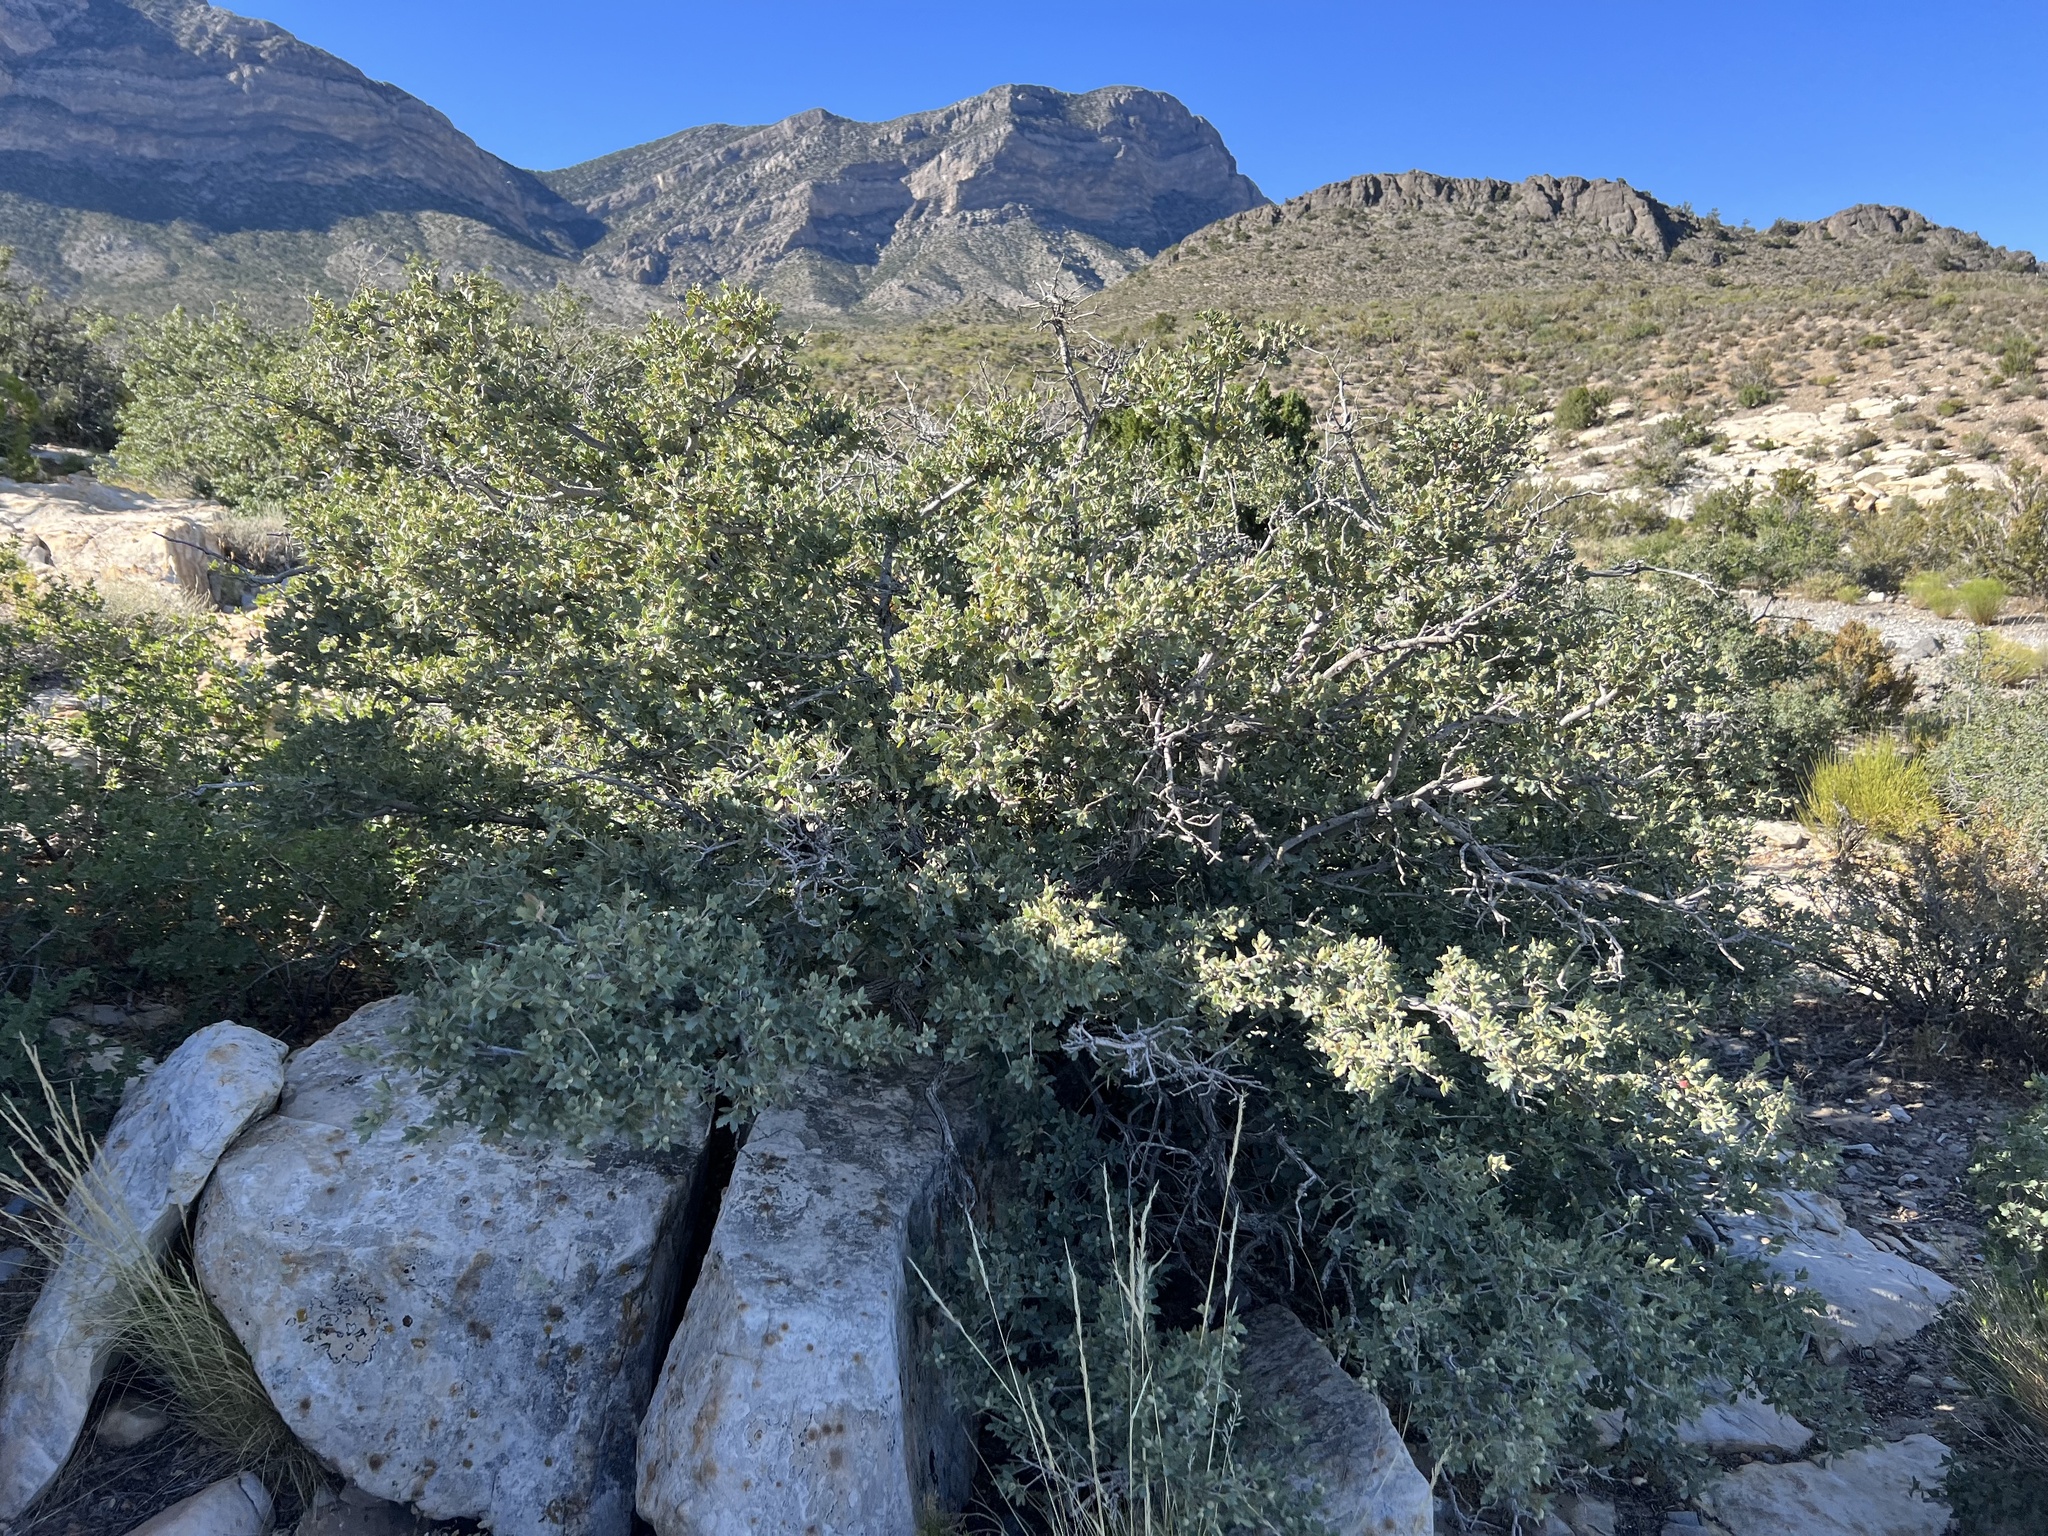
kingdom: Plantae
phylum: Tracheophyta
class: Magnoliopsida
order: Fagales
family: Fagaceae
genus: Quercus
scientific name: Quercus turbinella
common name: Sonoran scrub oak
